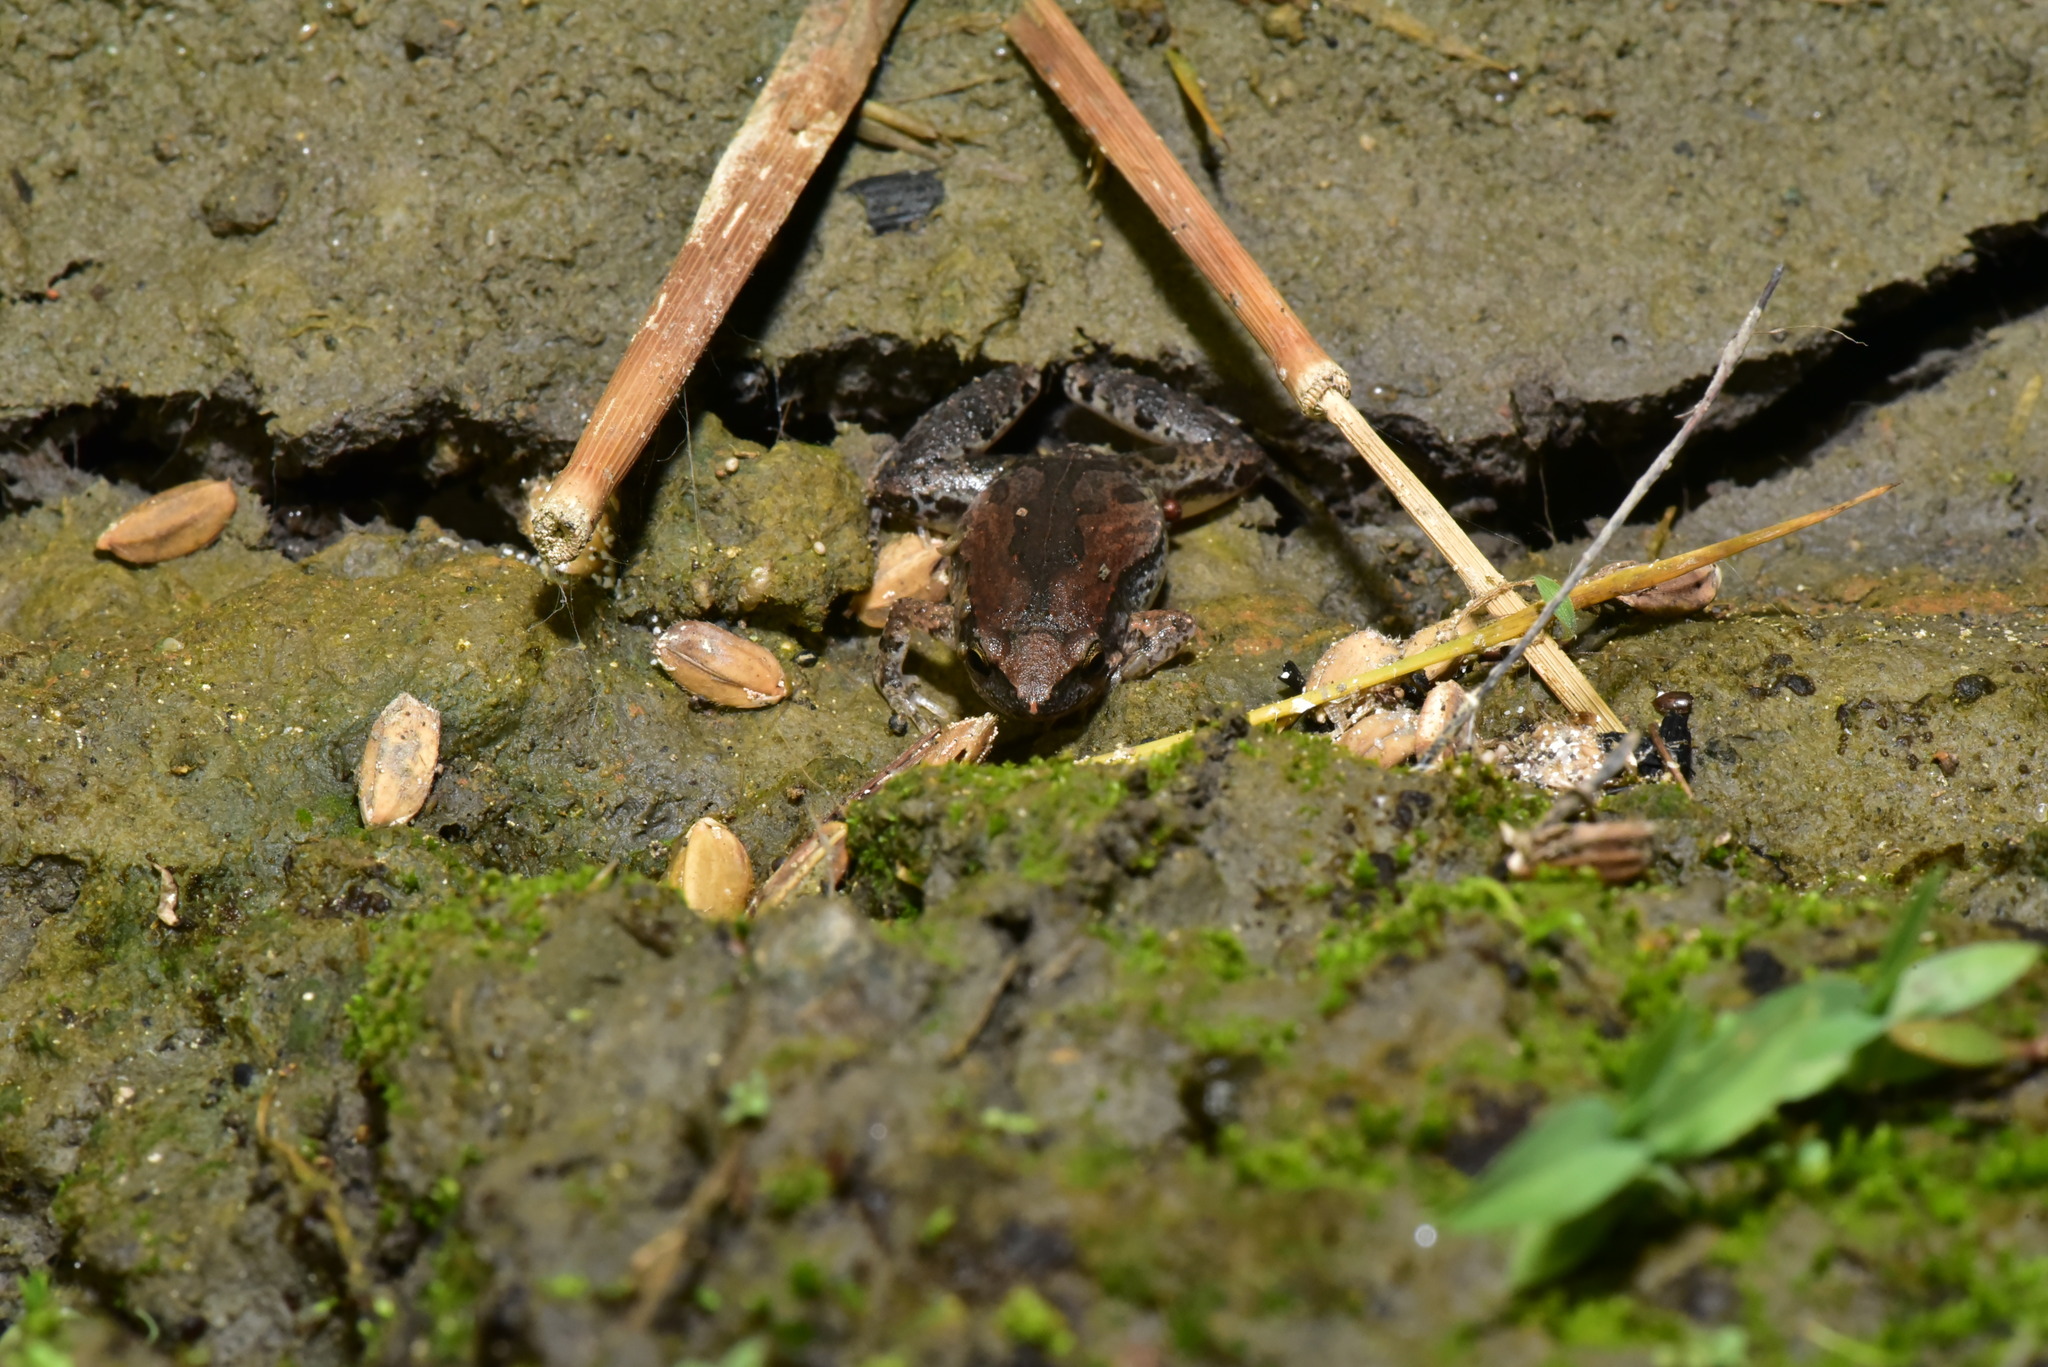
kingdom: Animalia
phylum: Chordata
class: Amphibia
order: Anura
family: Microhylidae
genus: Microhyla
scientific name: Microhyla fissipes
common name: Ornate narrow-mouthed frog
